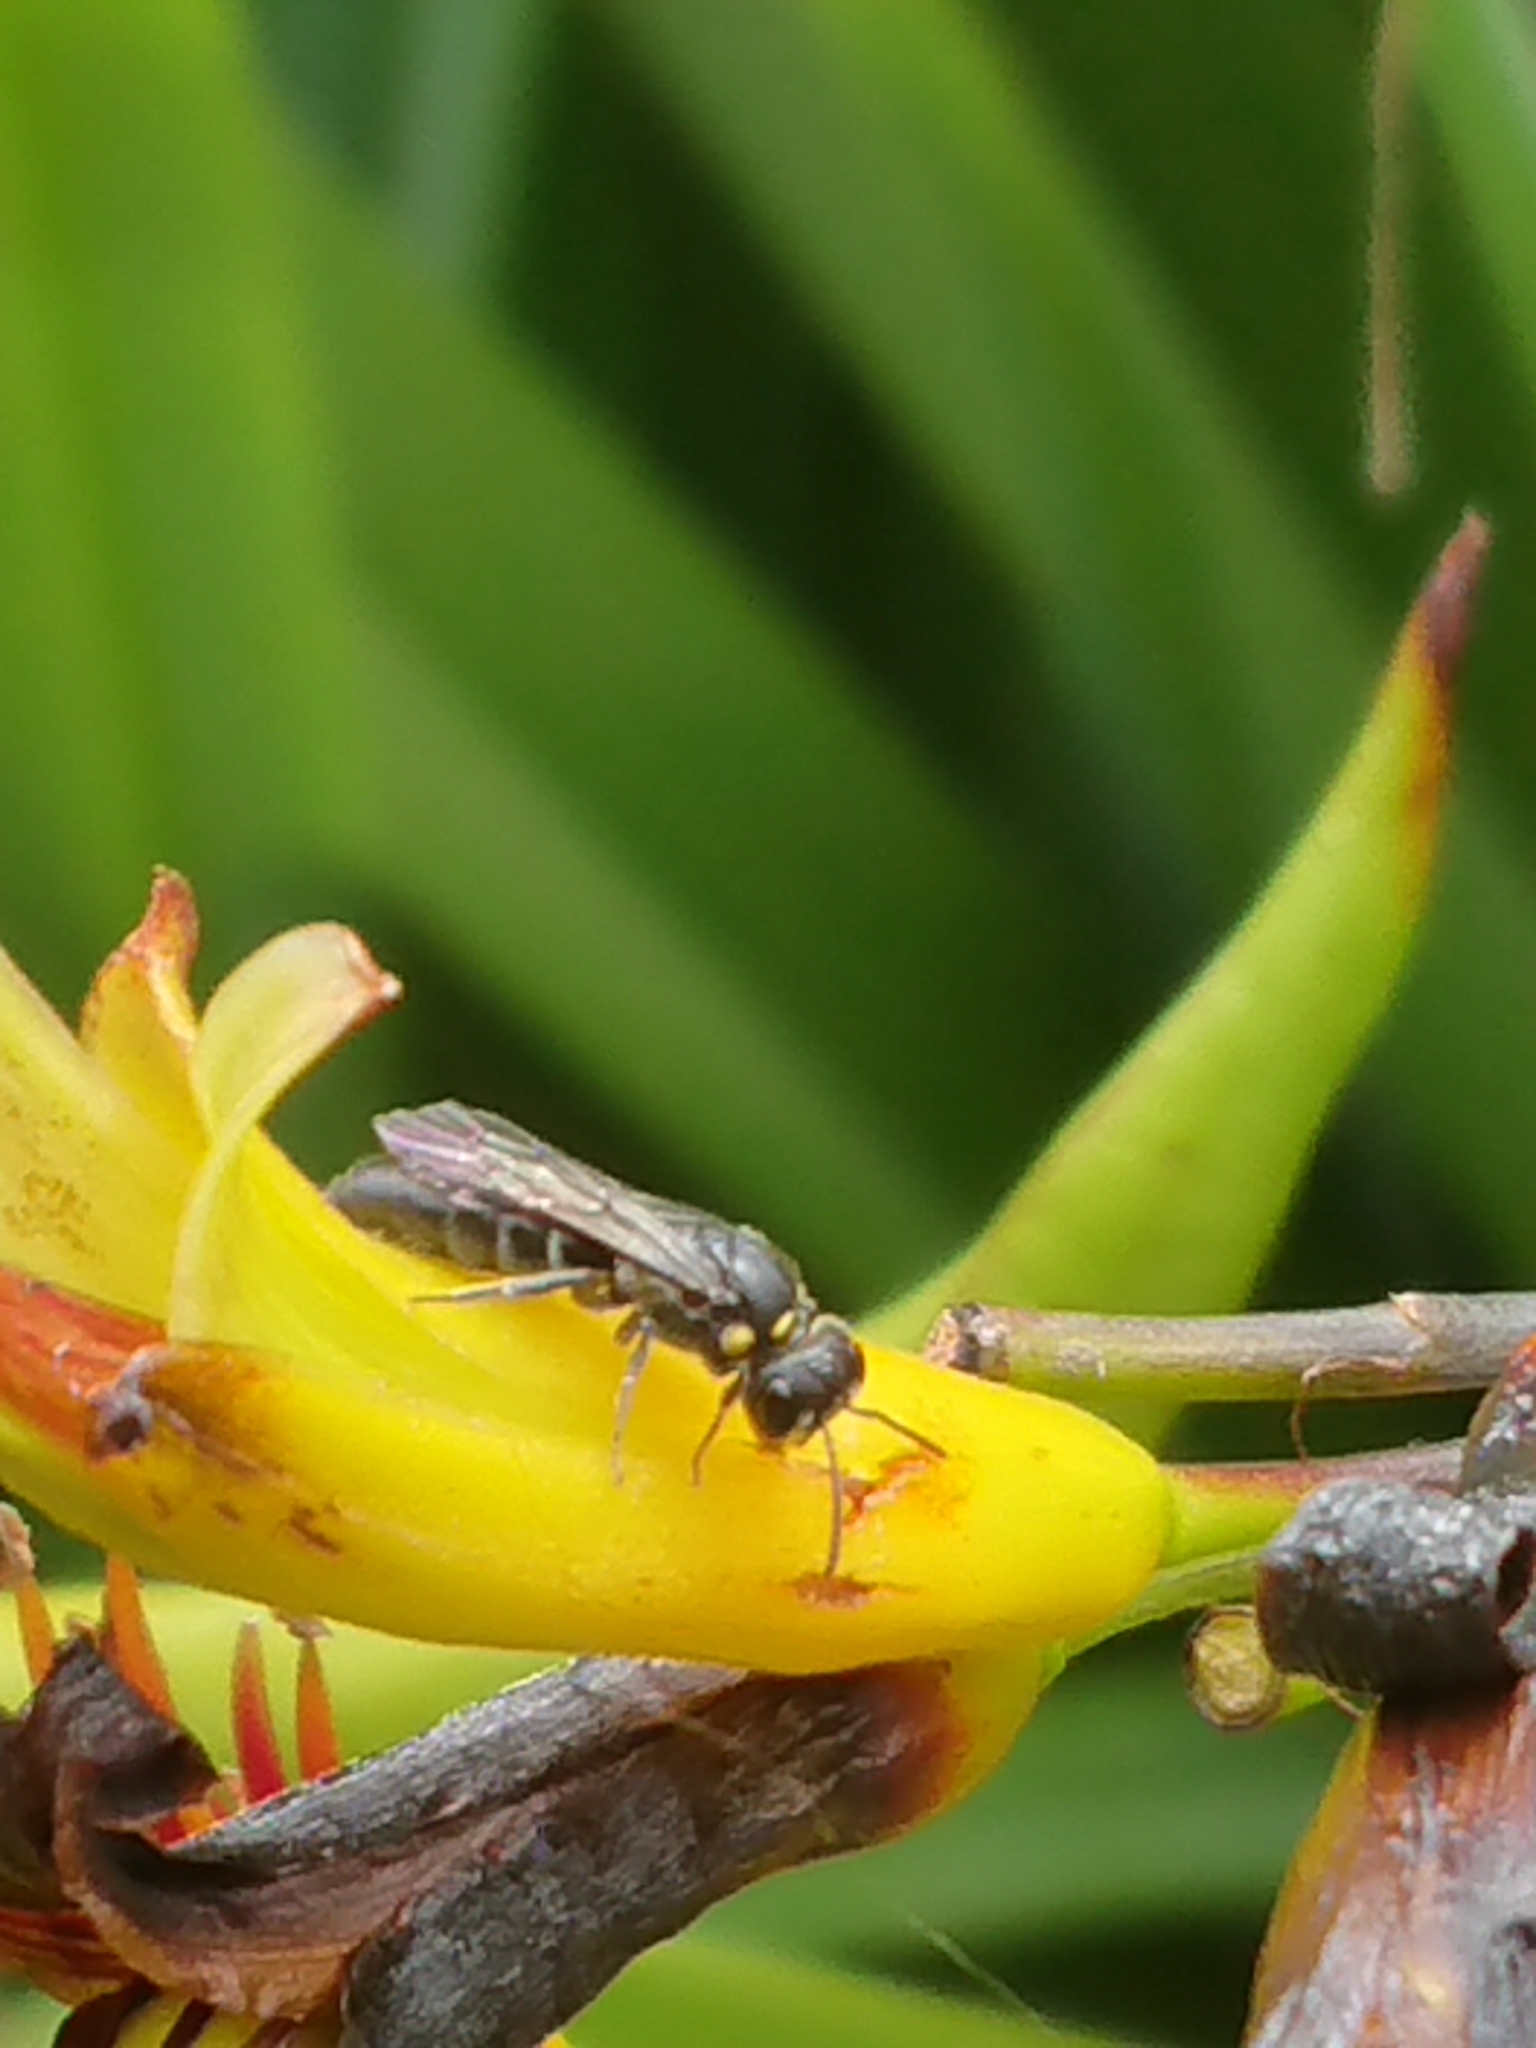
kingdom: Animalia
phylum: Arthropoda
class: Insecta
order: Hymenoptera
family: Colletidae
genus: Hylaeus
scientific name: Hylaeus relegatus
